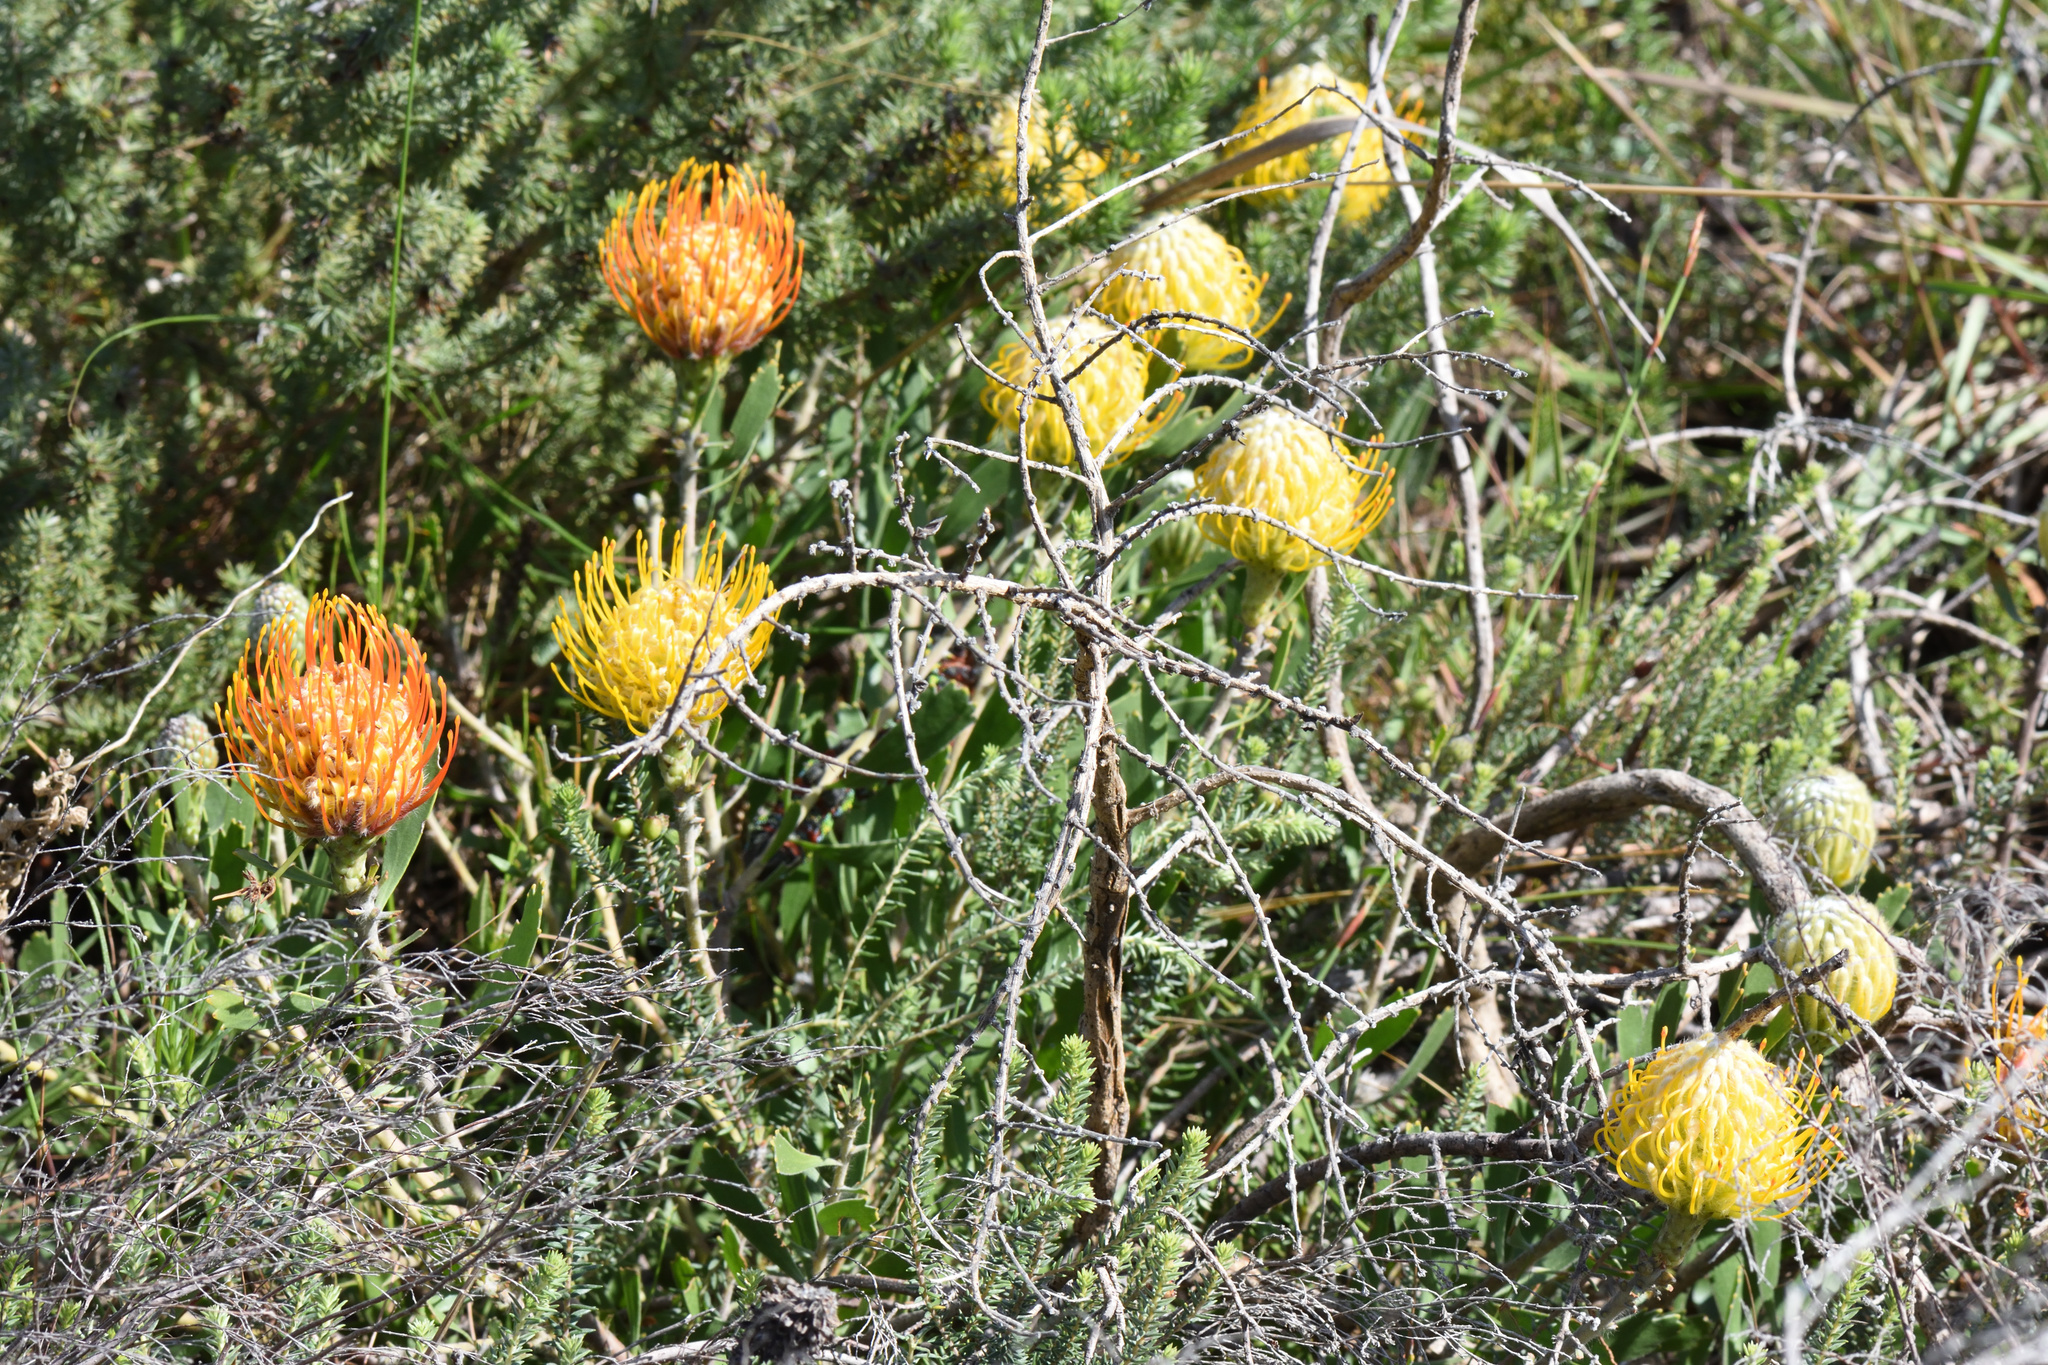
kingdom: Plantae
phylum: Tracheophyta
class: Magnoliopsida
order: Proteales
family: Proteaceae
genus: Leucospermum
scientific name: Leucospermum cuneiforme
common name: Common pincushion
